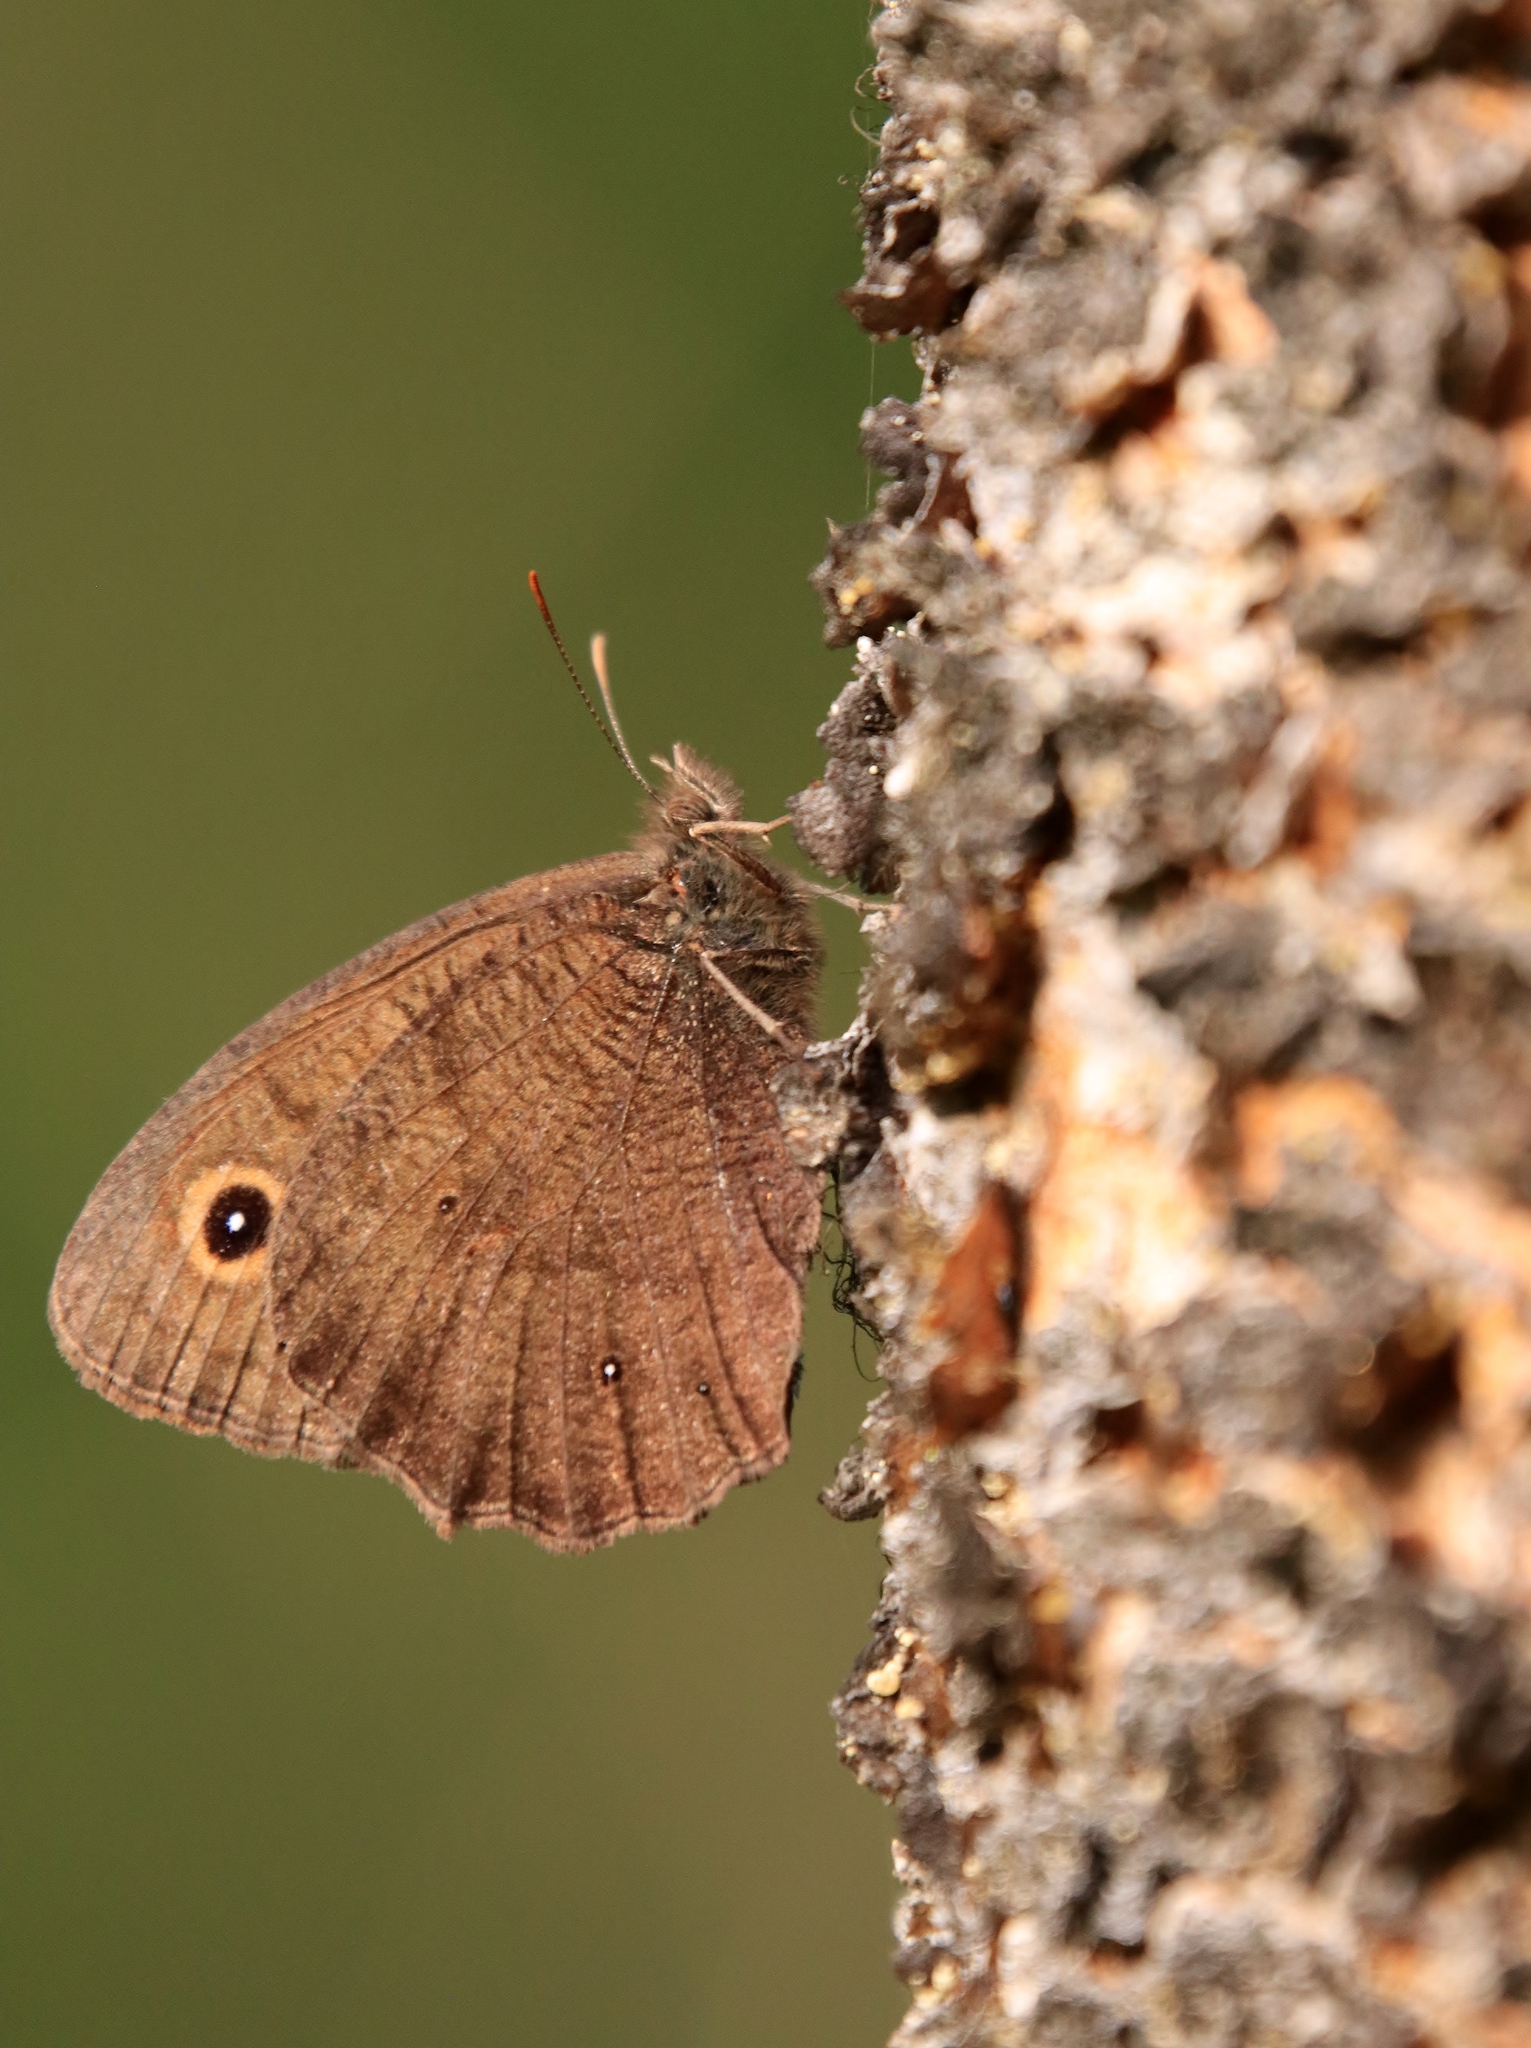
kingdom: Animalia
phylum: Arthropoda
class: Insecta
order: Lepidoptera
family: Nymphalidae
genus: Cercyonis
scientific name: Cercyonis pegala
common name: Common wood-nymph
